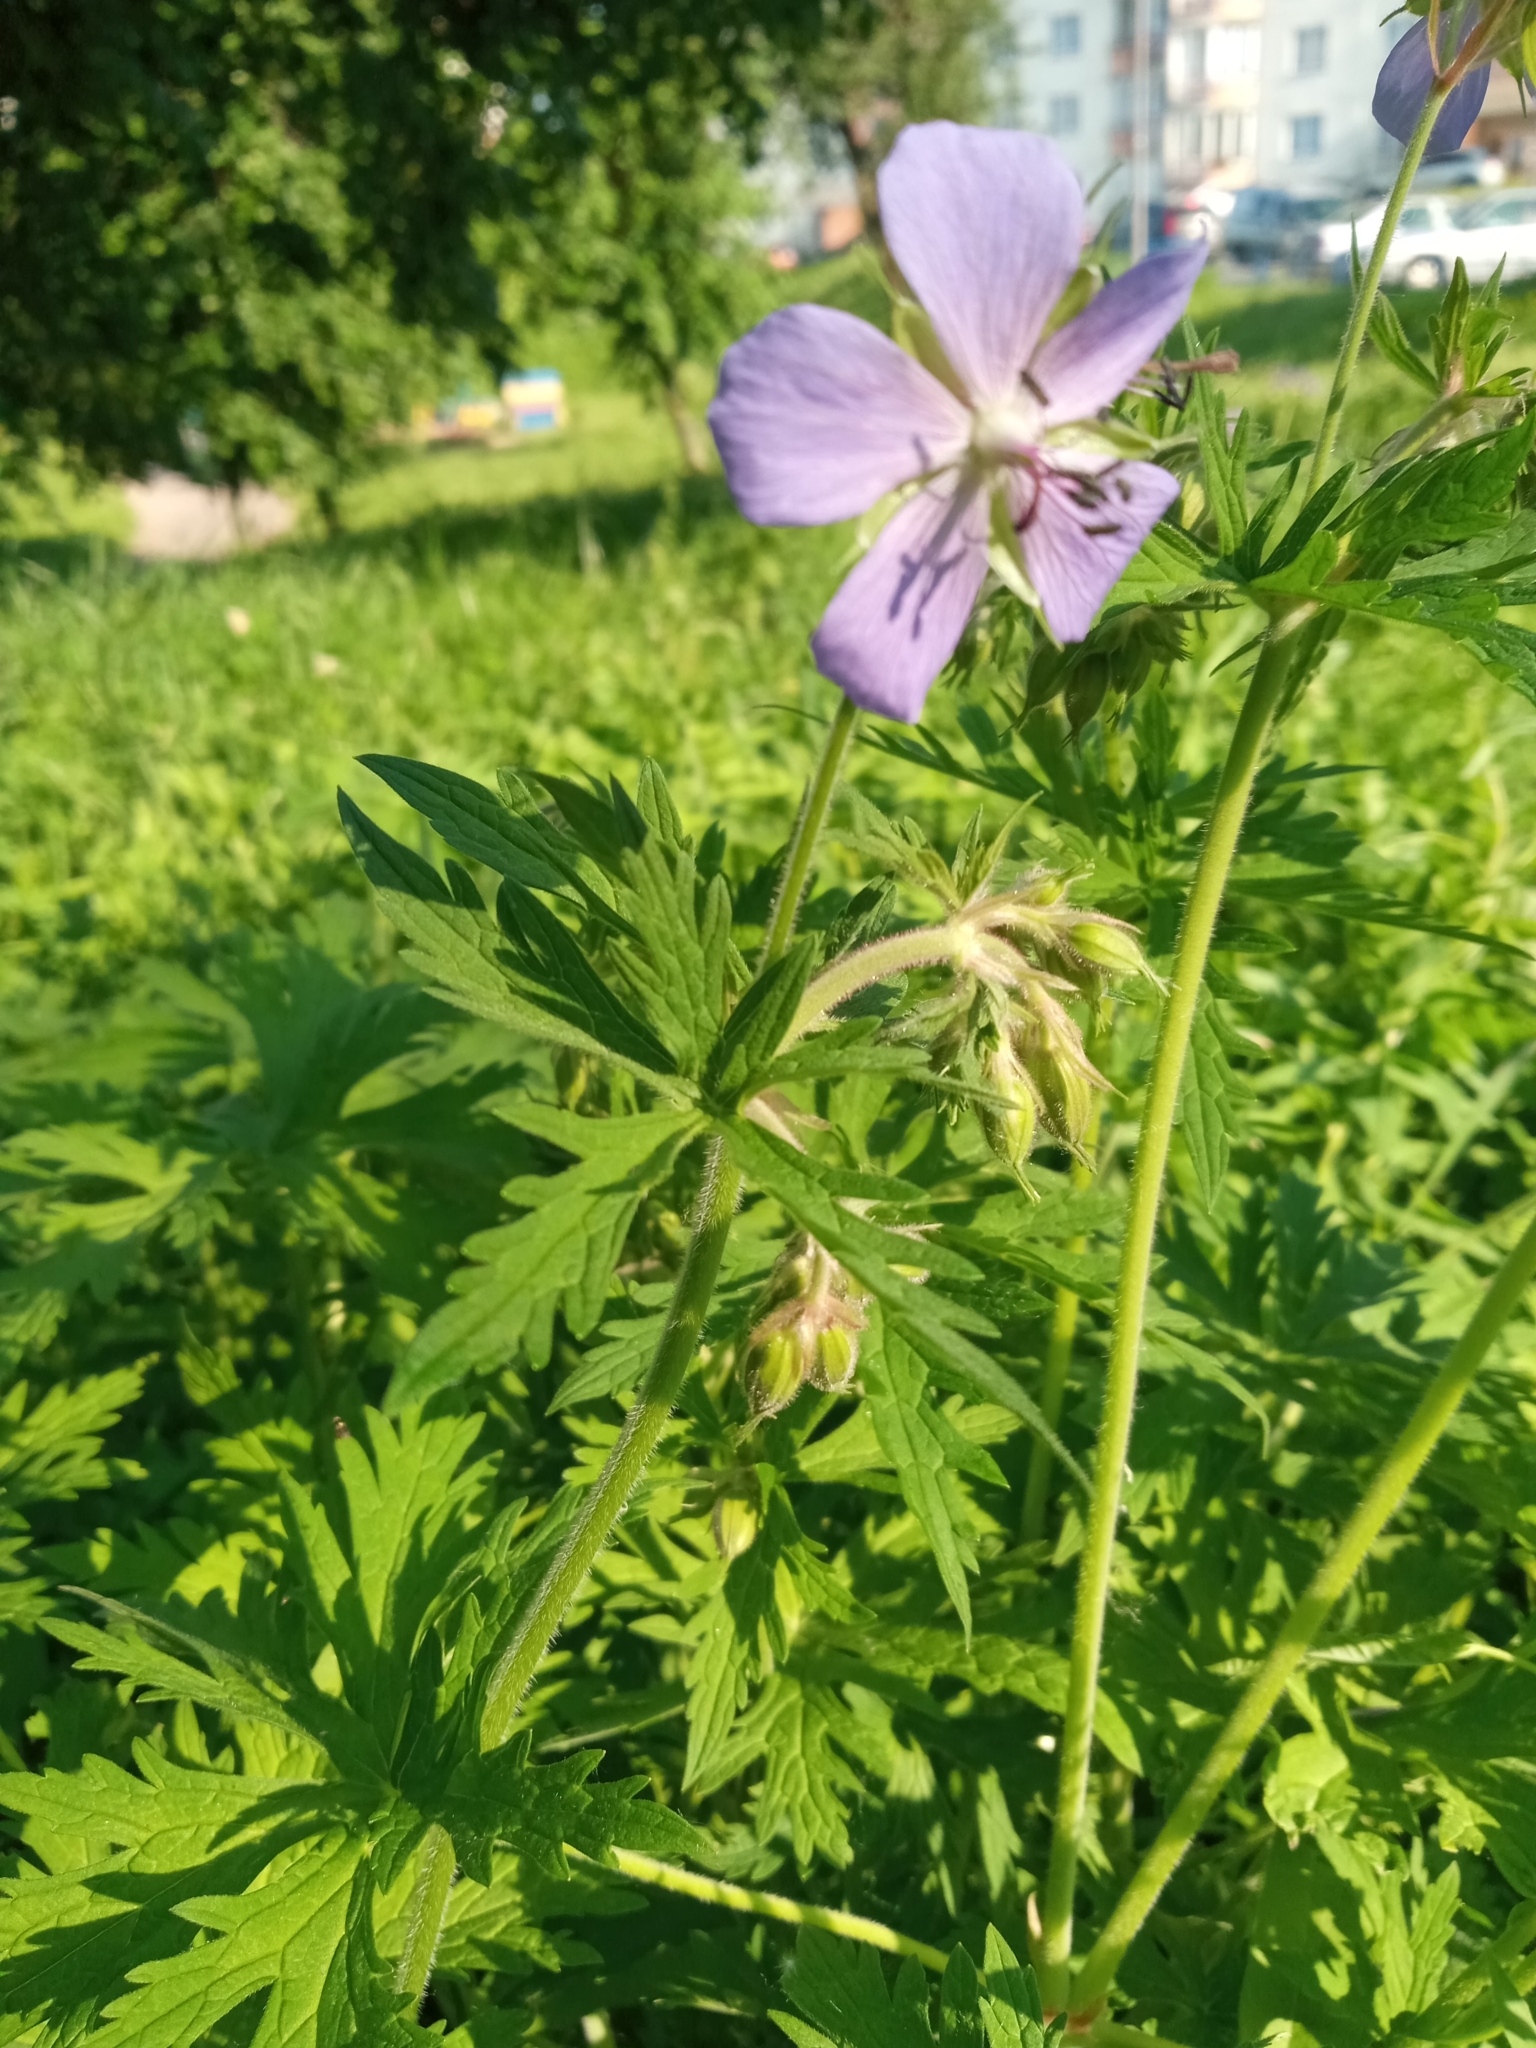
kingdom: Plantae
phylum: Tracheophyta
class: Magnoliopsida
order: Geraniales
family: Geraniaceae
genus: Geranium
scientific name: Geranium pratense
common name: Meadow crane's-bill
